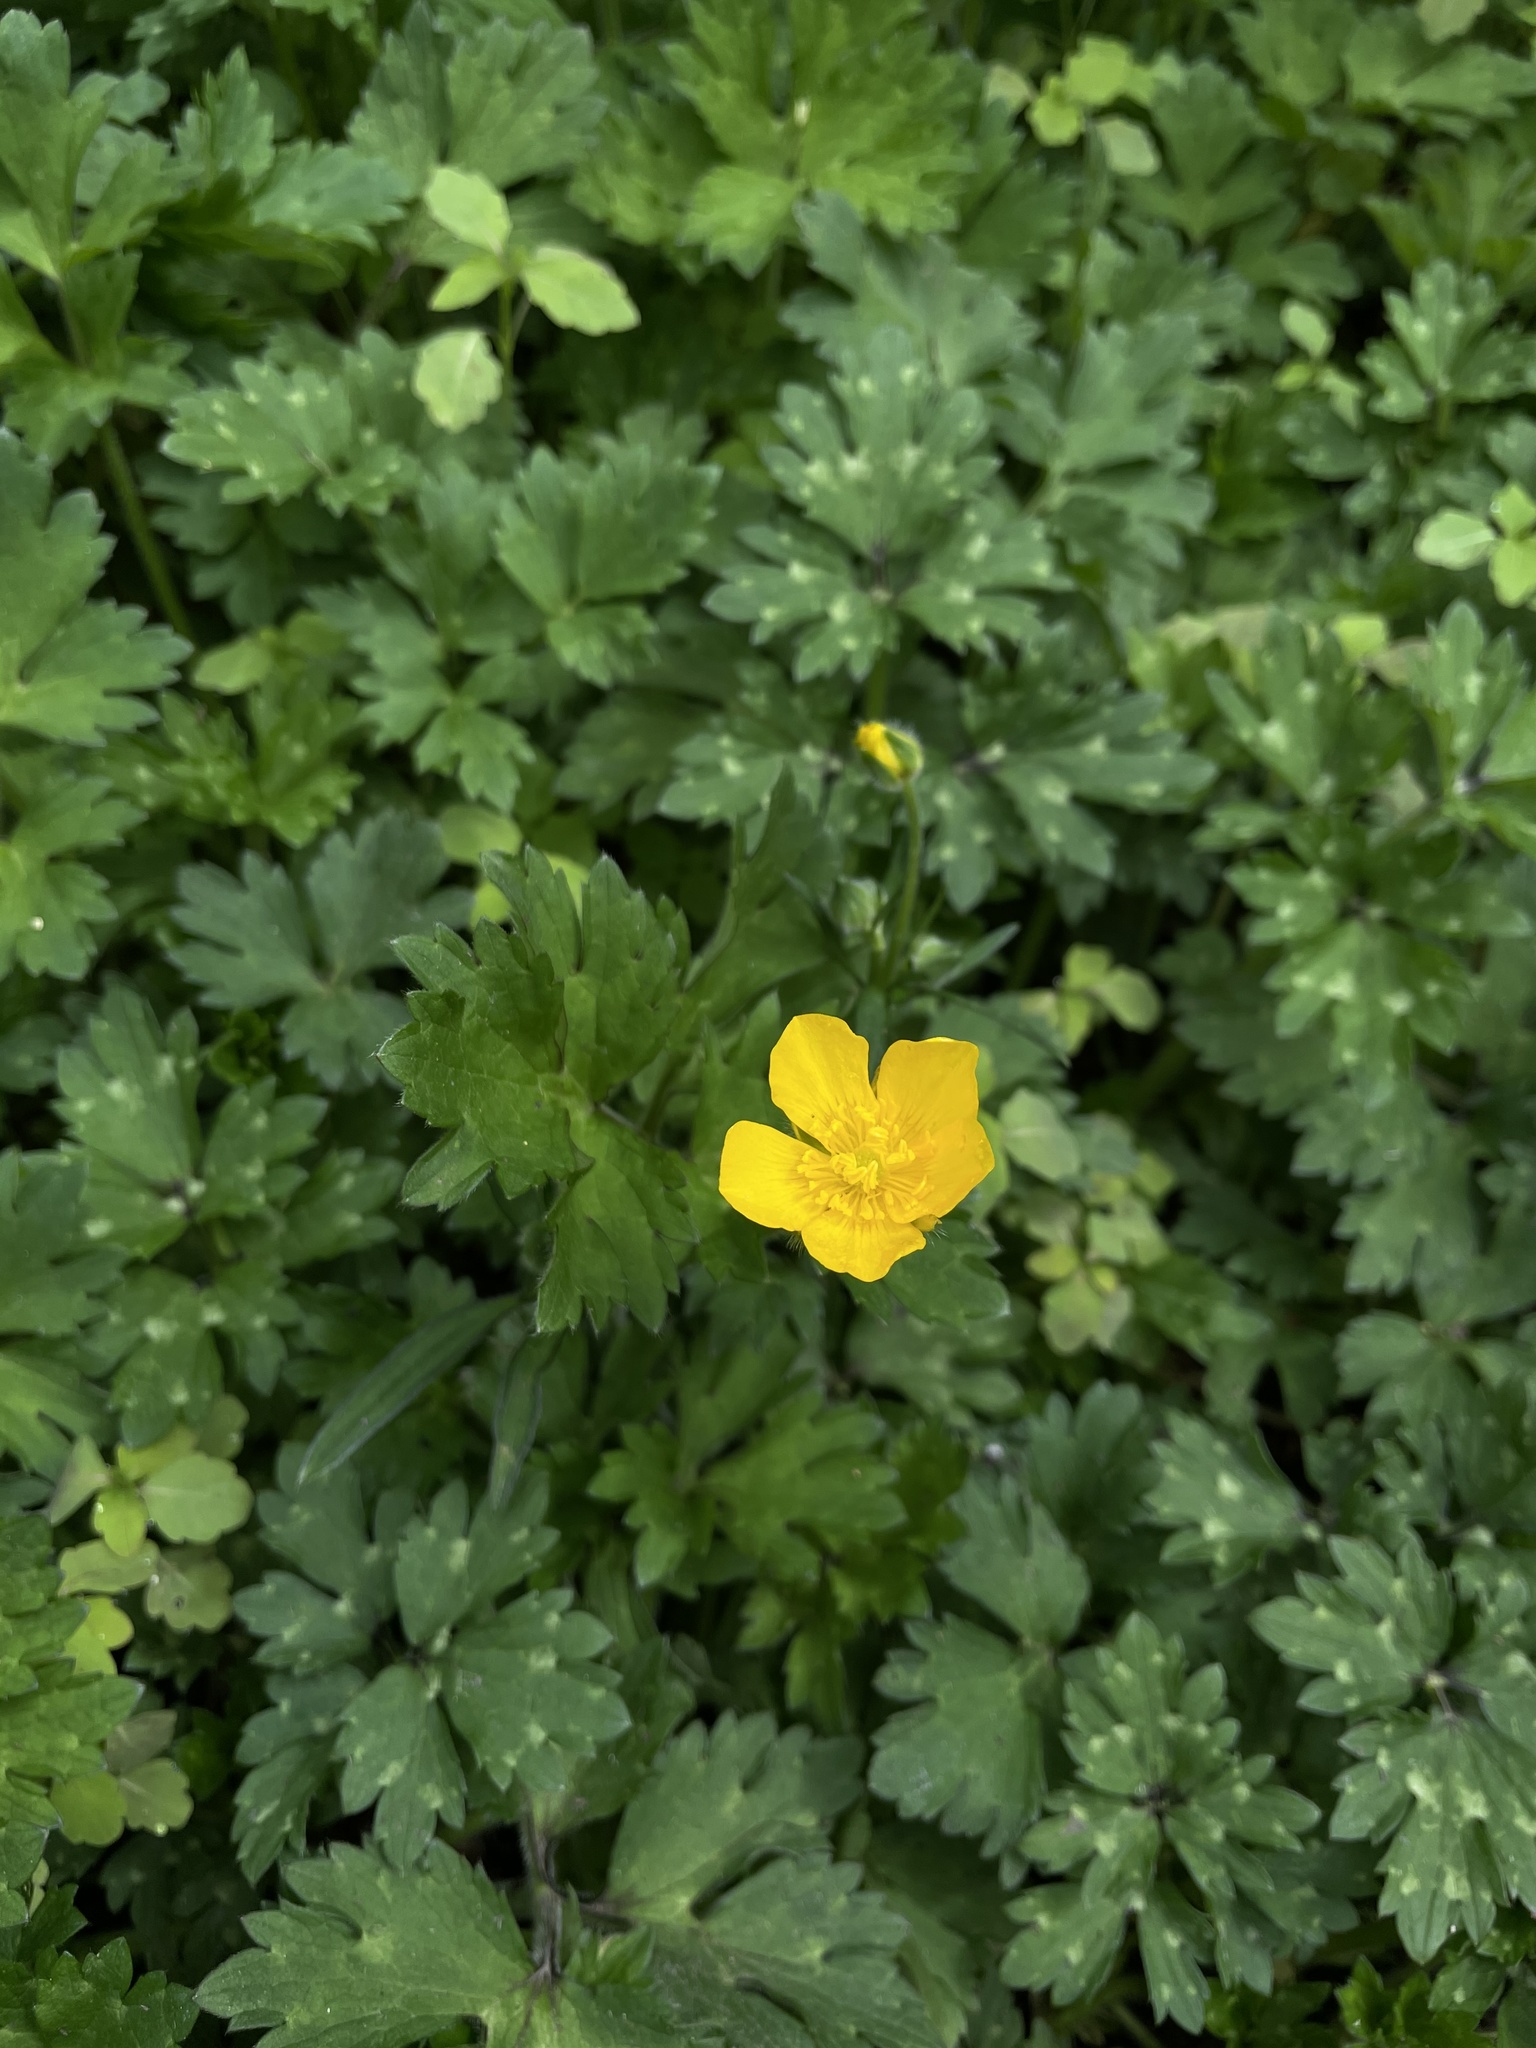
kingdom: Plantae
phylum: Tracheophyta
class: Magnoliopsida
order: Ranunculales
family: Ranunculaceae
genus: Ranunculus
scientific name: Ranunculus repens
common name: Creeping buttercup
